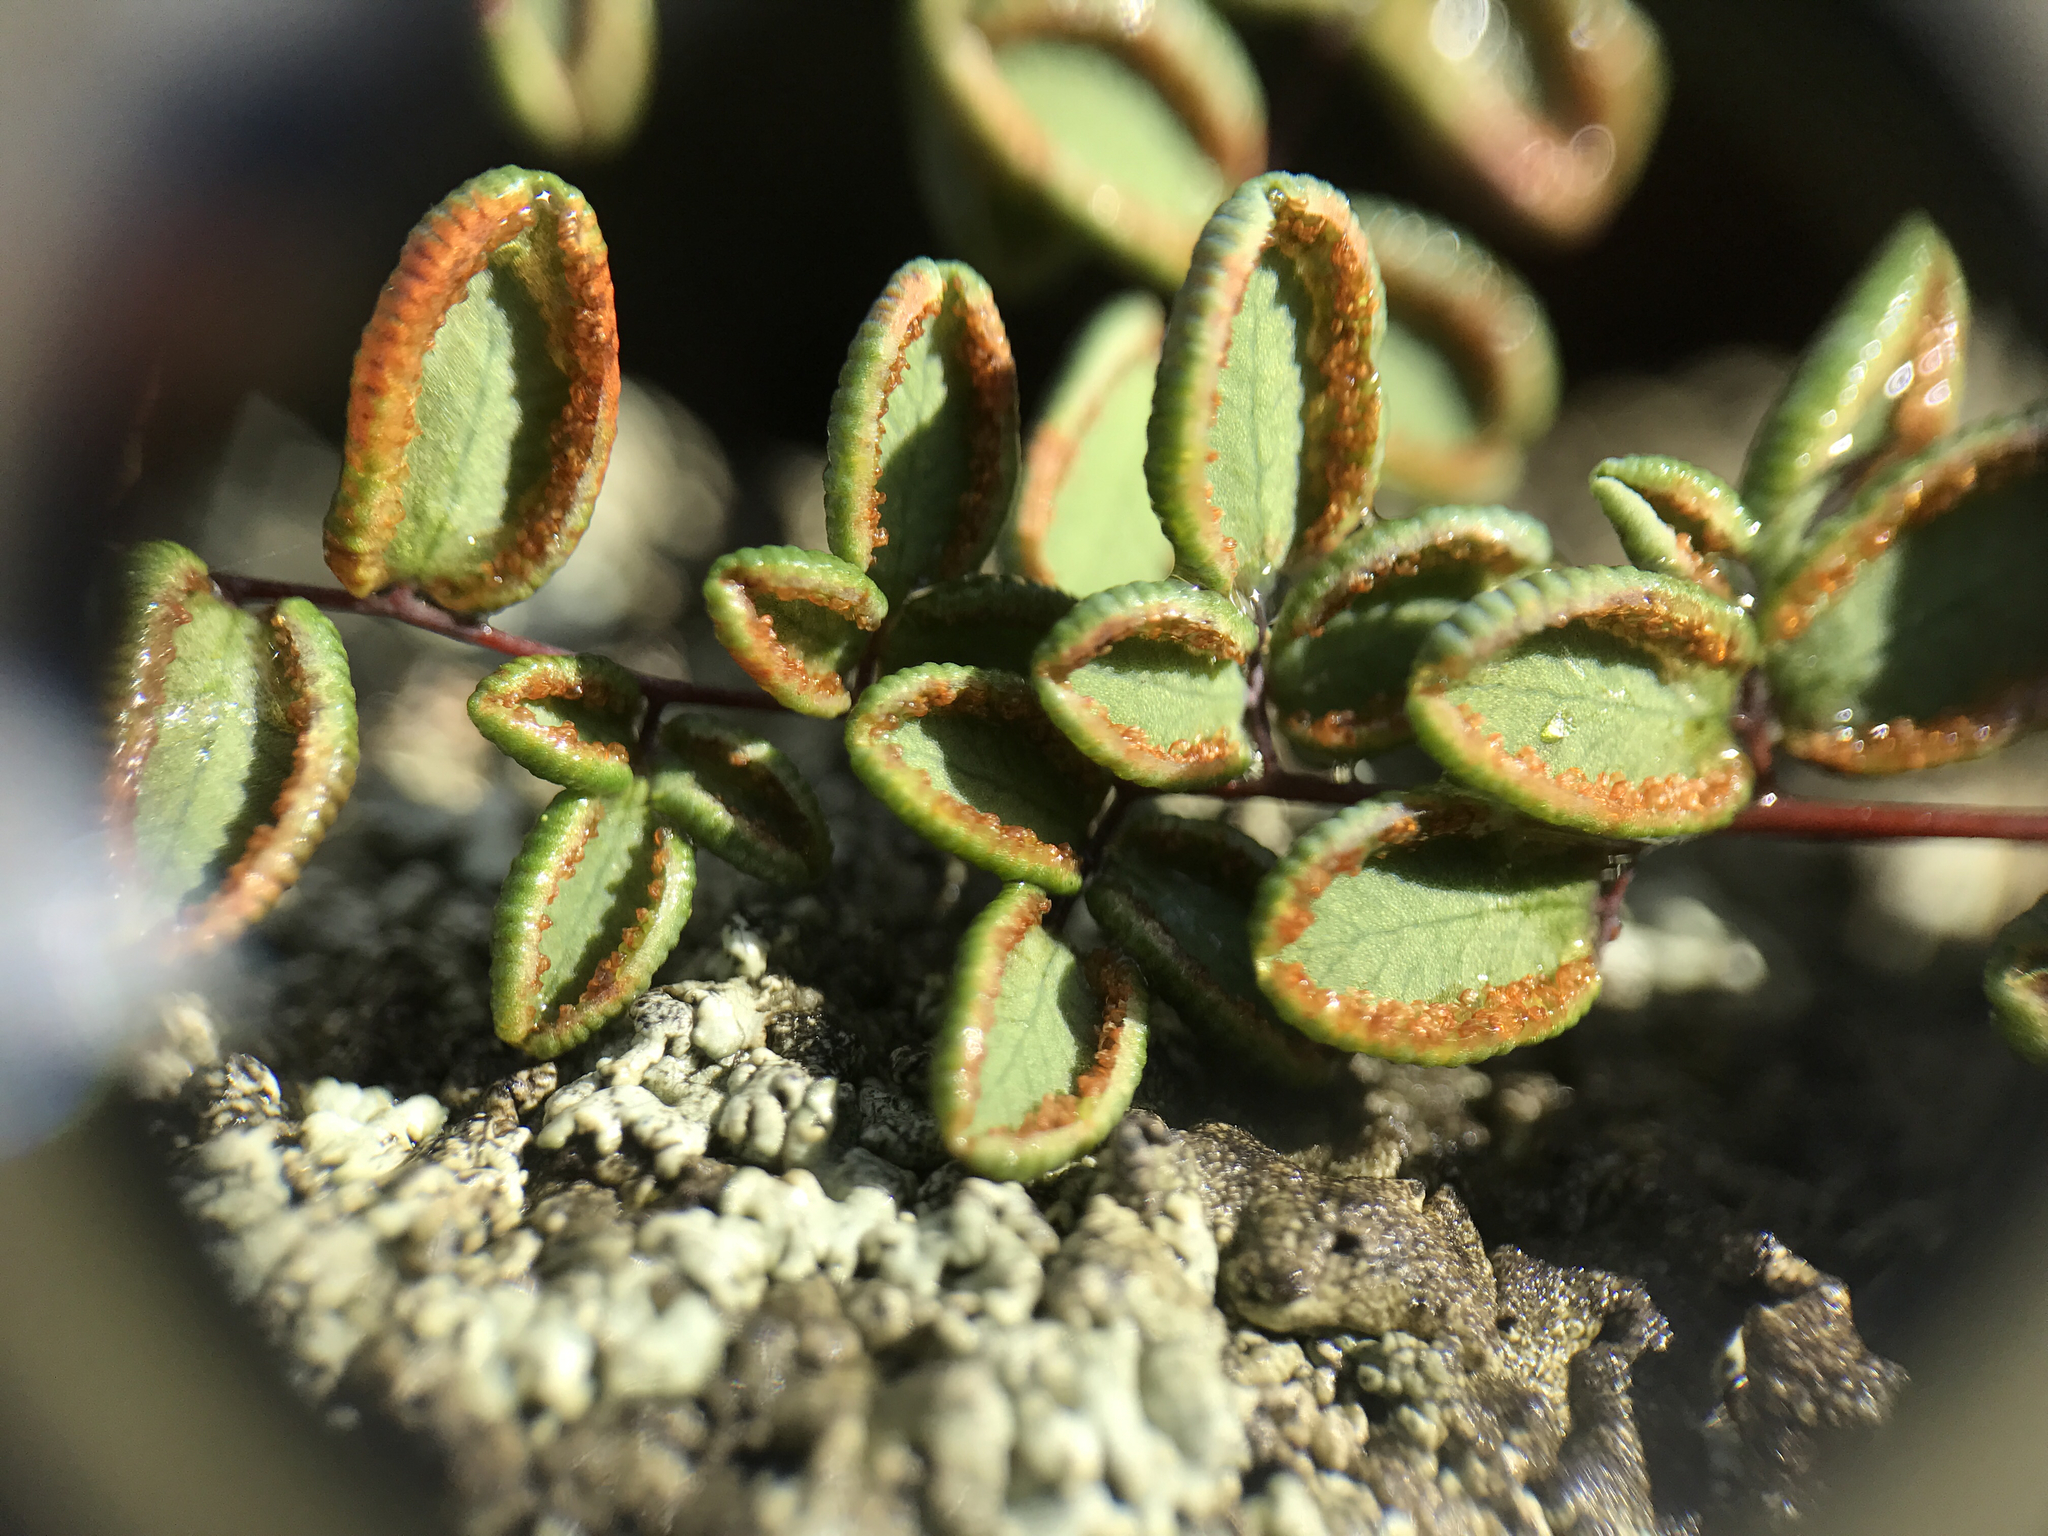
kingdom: Plantae
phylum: Tracheophyta
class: Polypodiopsida
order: Polypodiales
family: Pteridaceae
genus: Pellaea
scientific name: Pellaea andromedifolia
